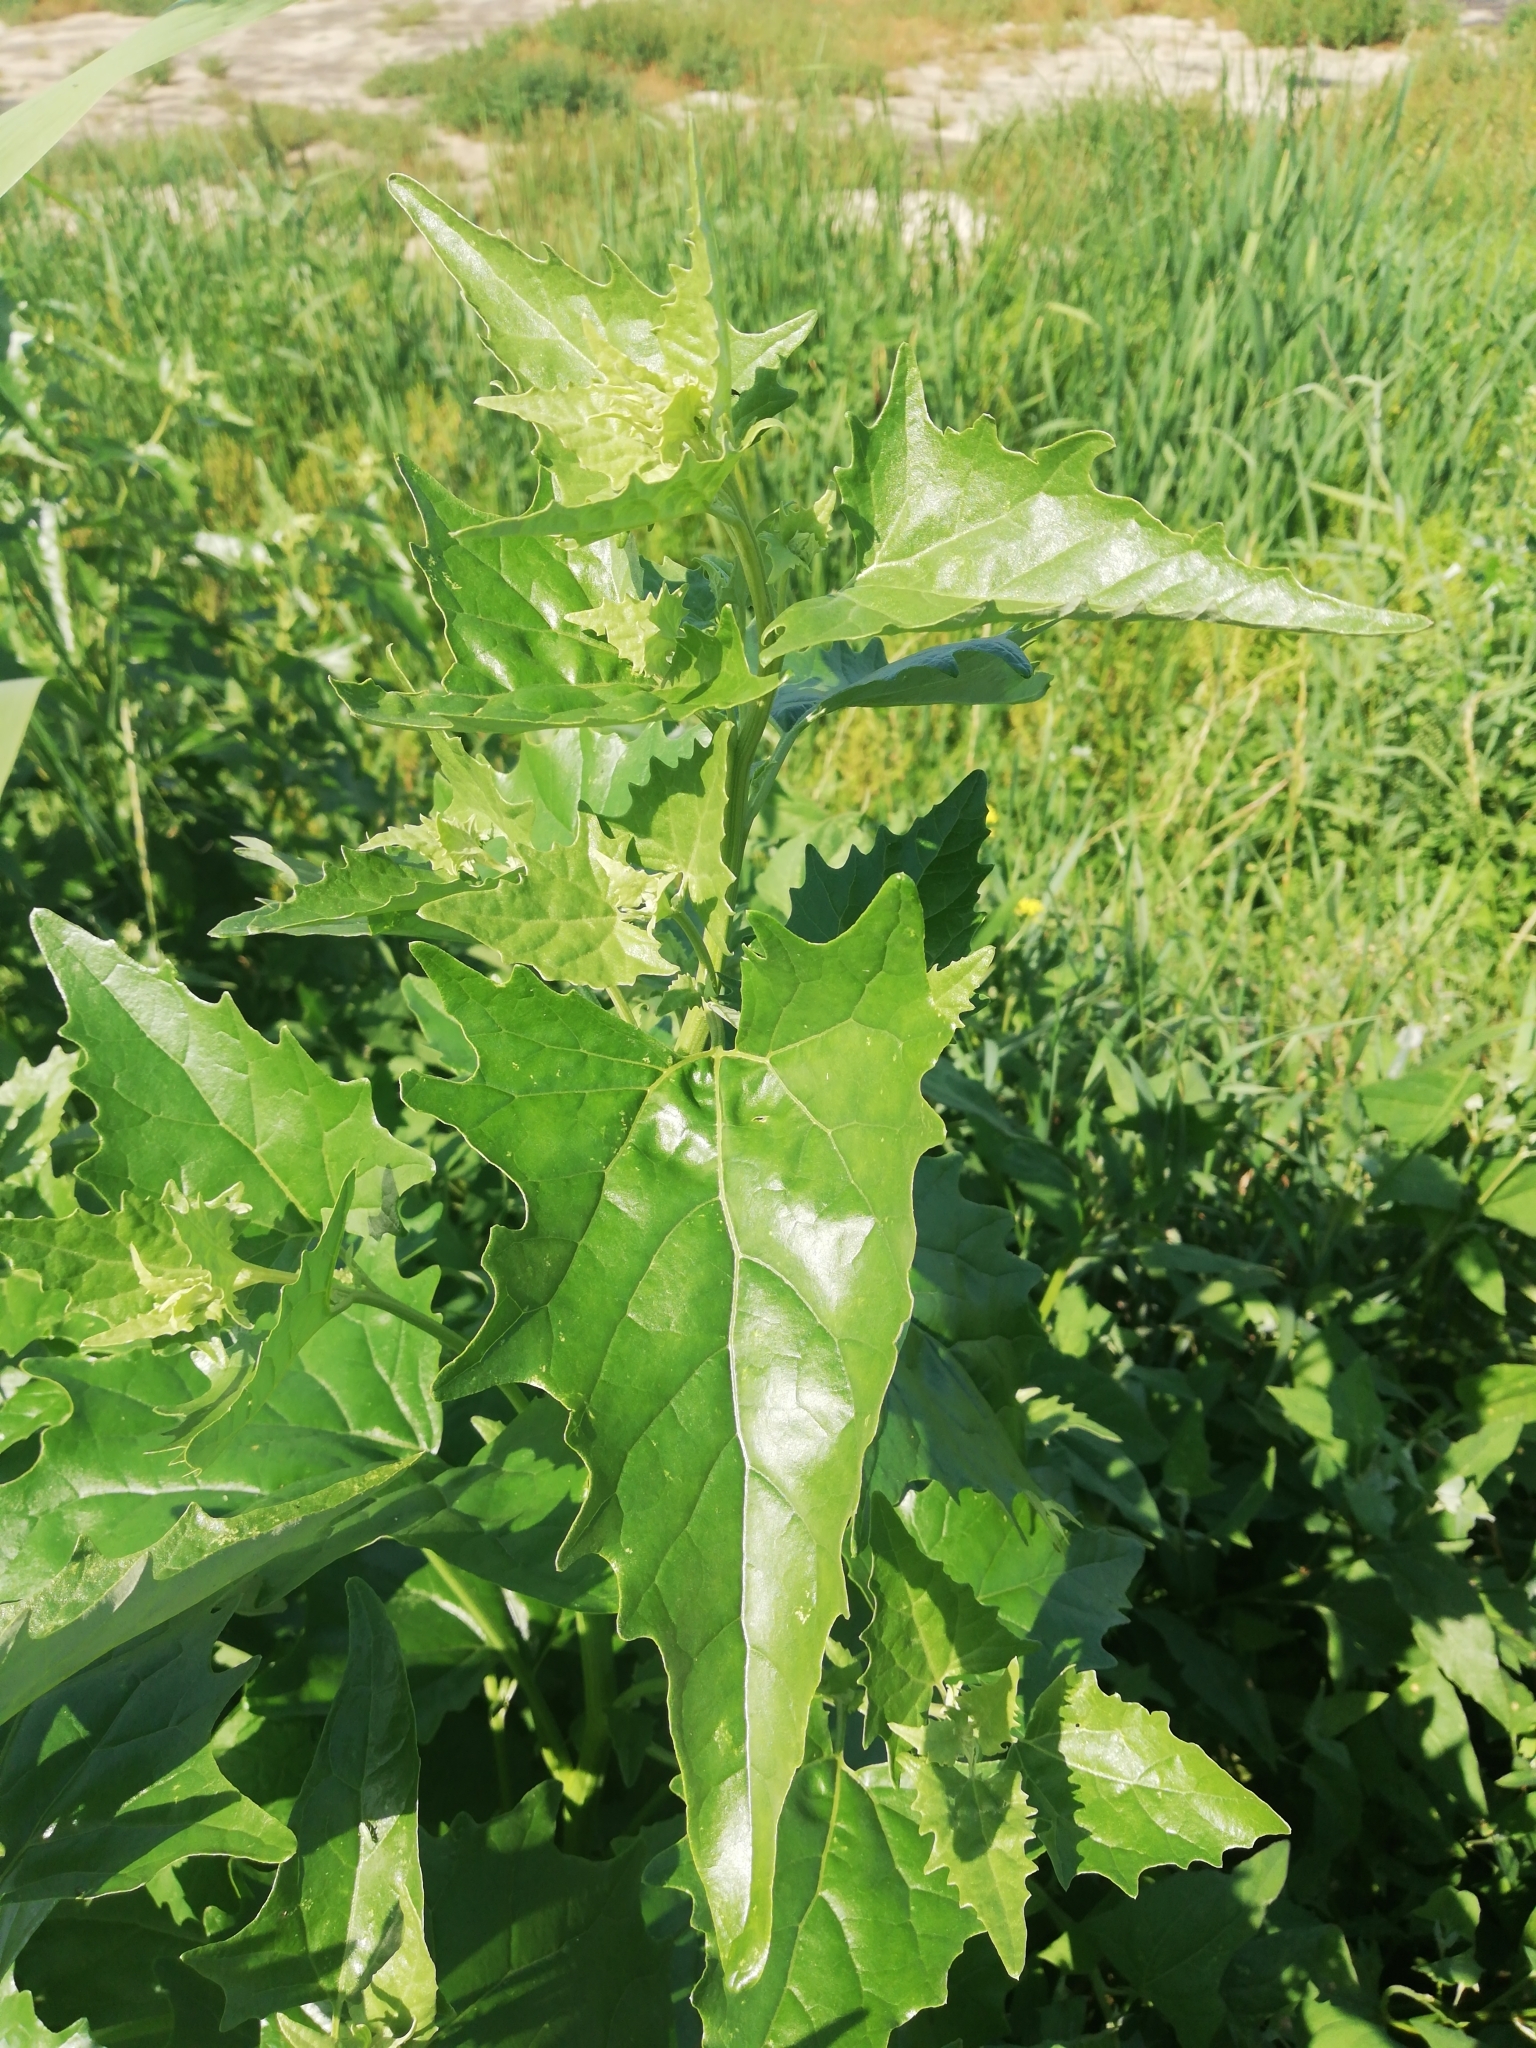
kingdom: Plantae
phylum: Tracheophyta
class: Magnoliopsida
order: Caryophyllales
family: Amaranthaceae
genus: Atriplex
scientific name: Atriplex sagittata
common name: Purple orache
